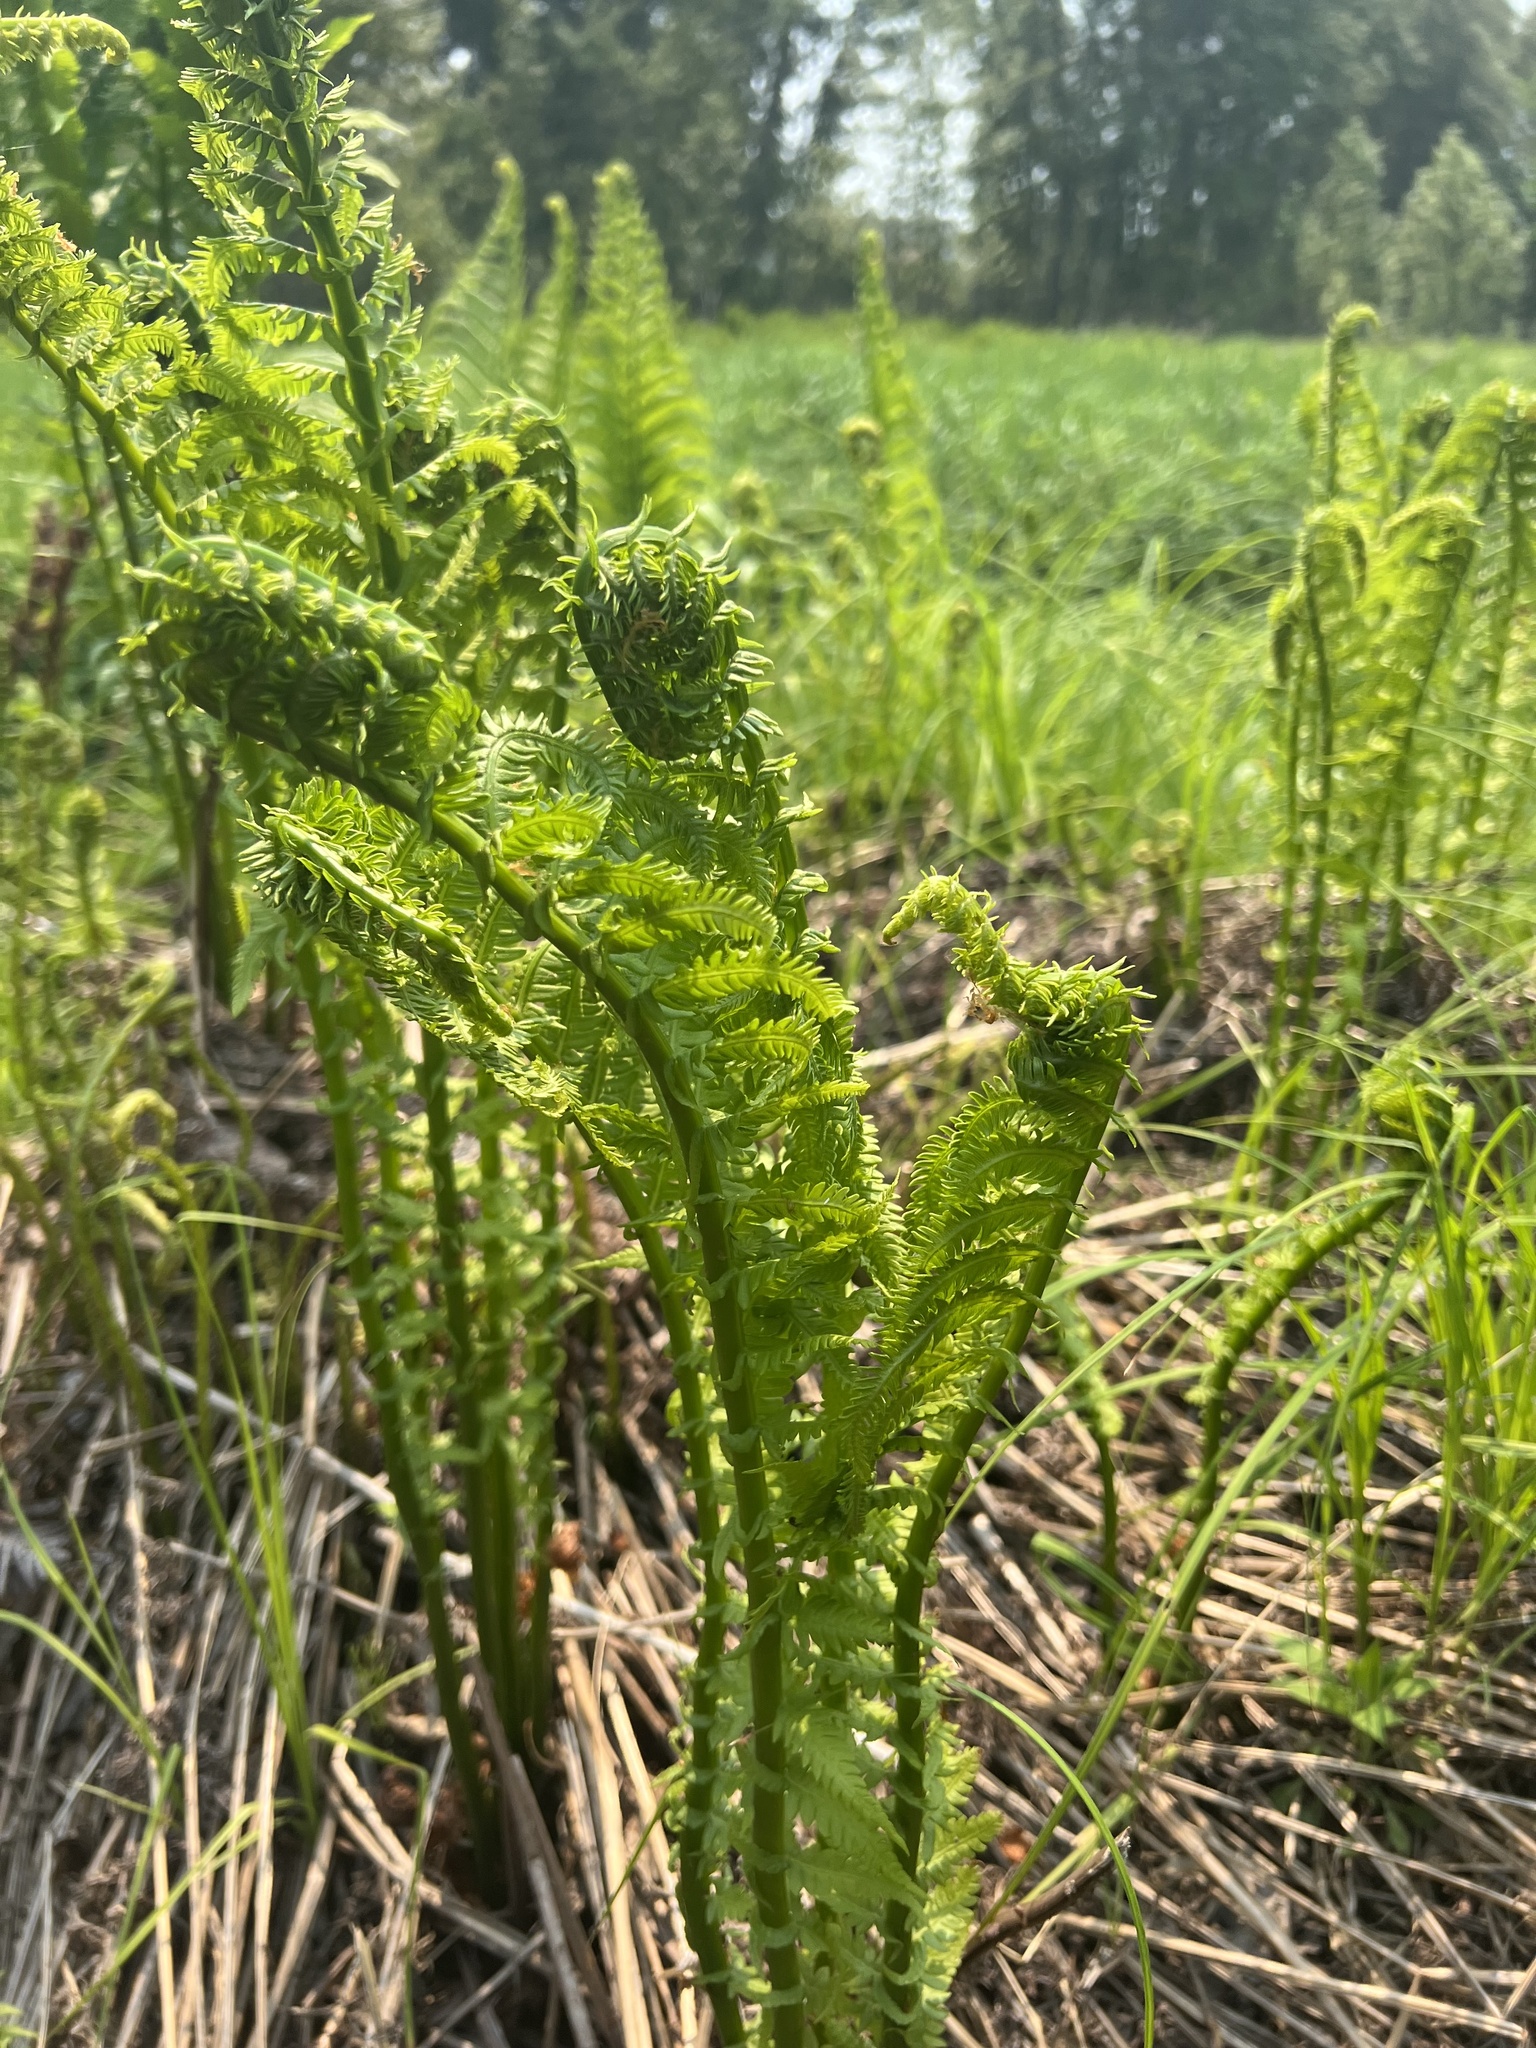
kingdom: Plantae
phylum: Tracheophyta
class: Polypodiopsida
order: Polypodiales
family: Onocleaceae
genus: Matteuccia
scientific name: Matteuccia struthiopteris
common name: Ostrich fern
